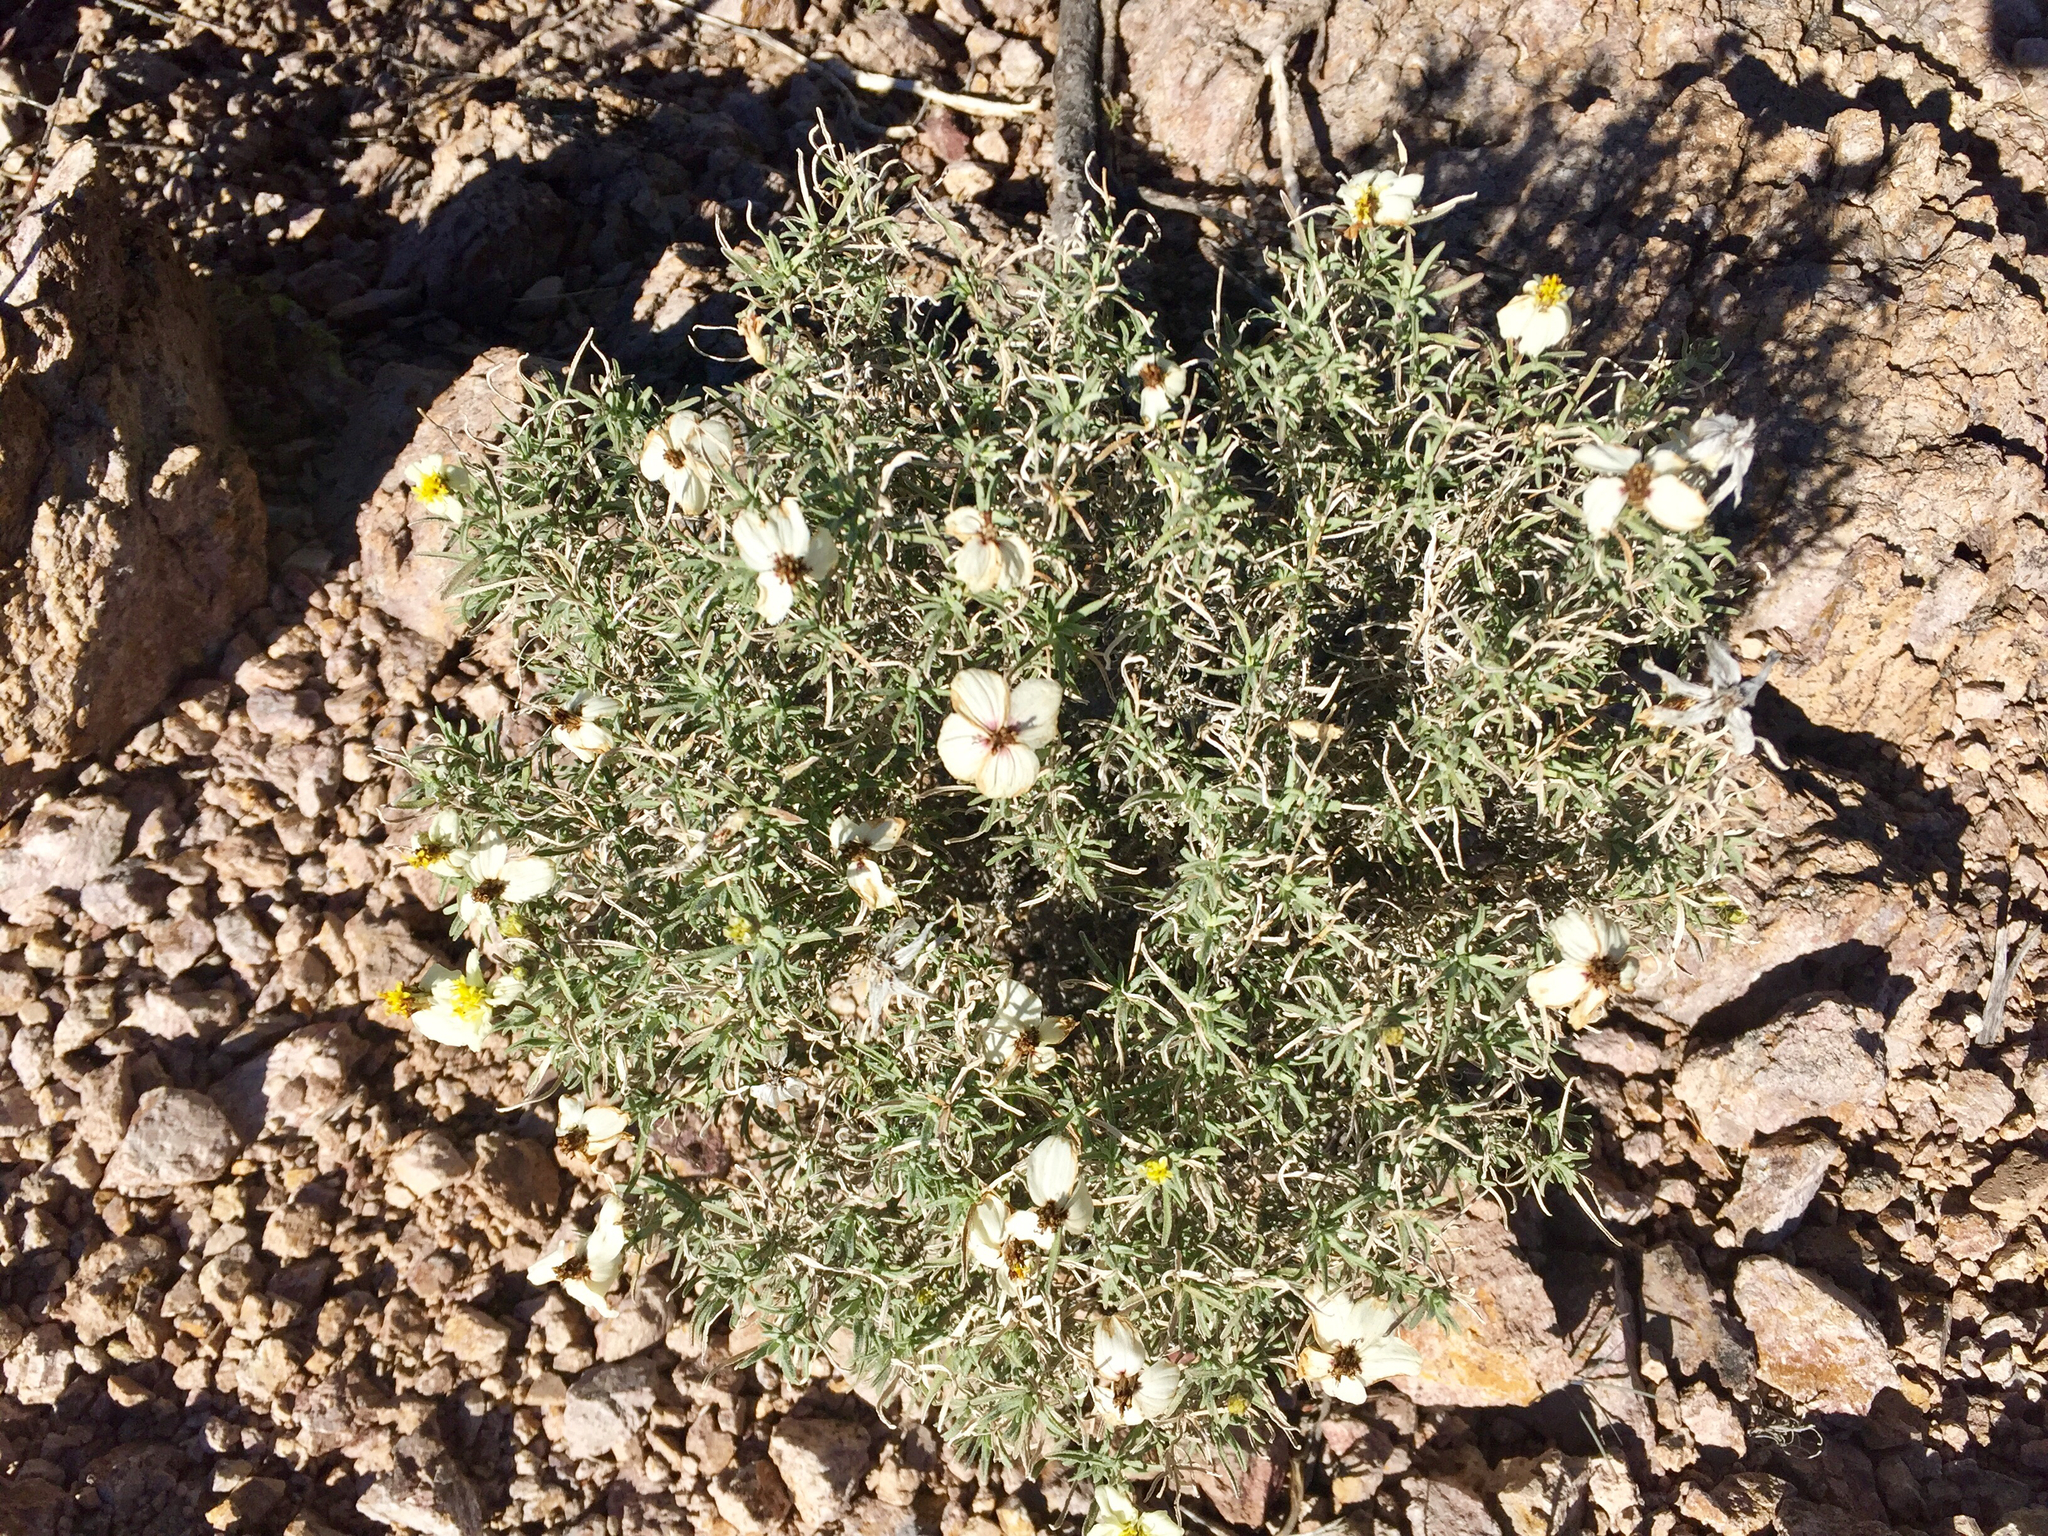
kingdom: Plantae
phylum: Tracheophyta
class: Magnoliopsida
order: Asterales
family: Asteraceae
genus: Zinnia
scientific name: Zinnia acerosa
